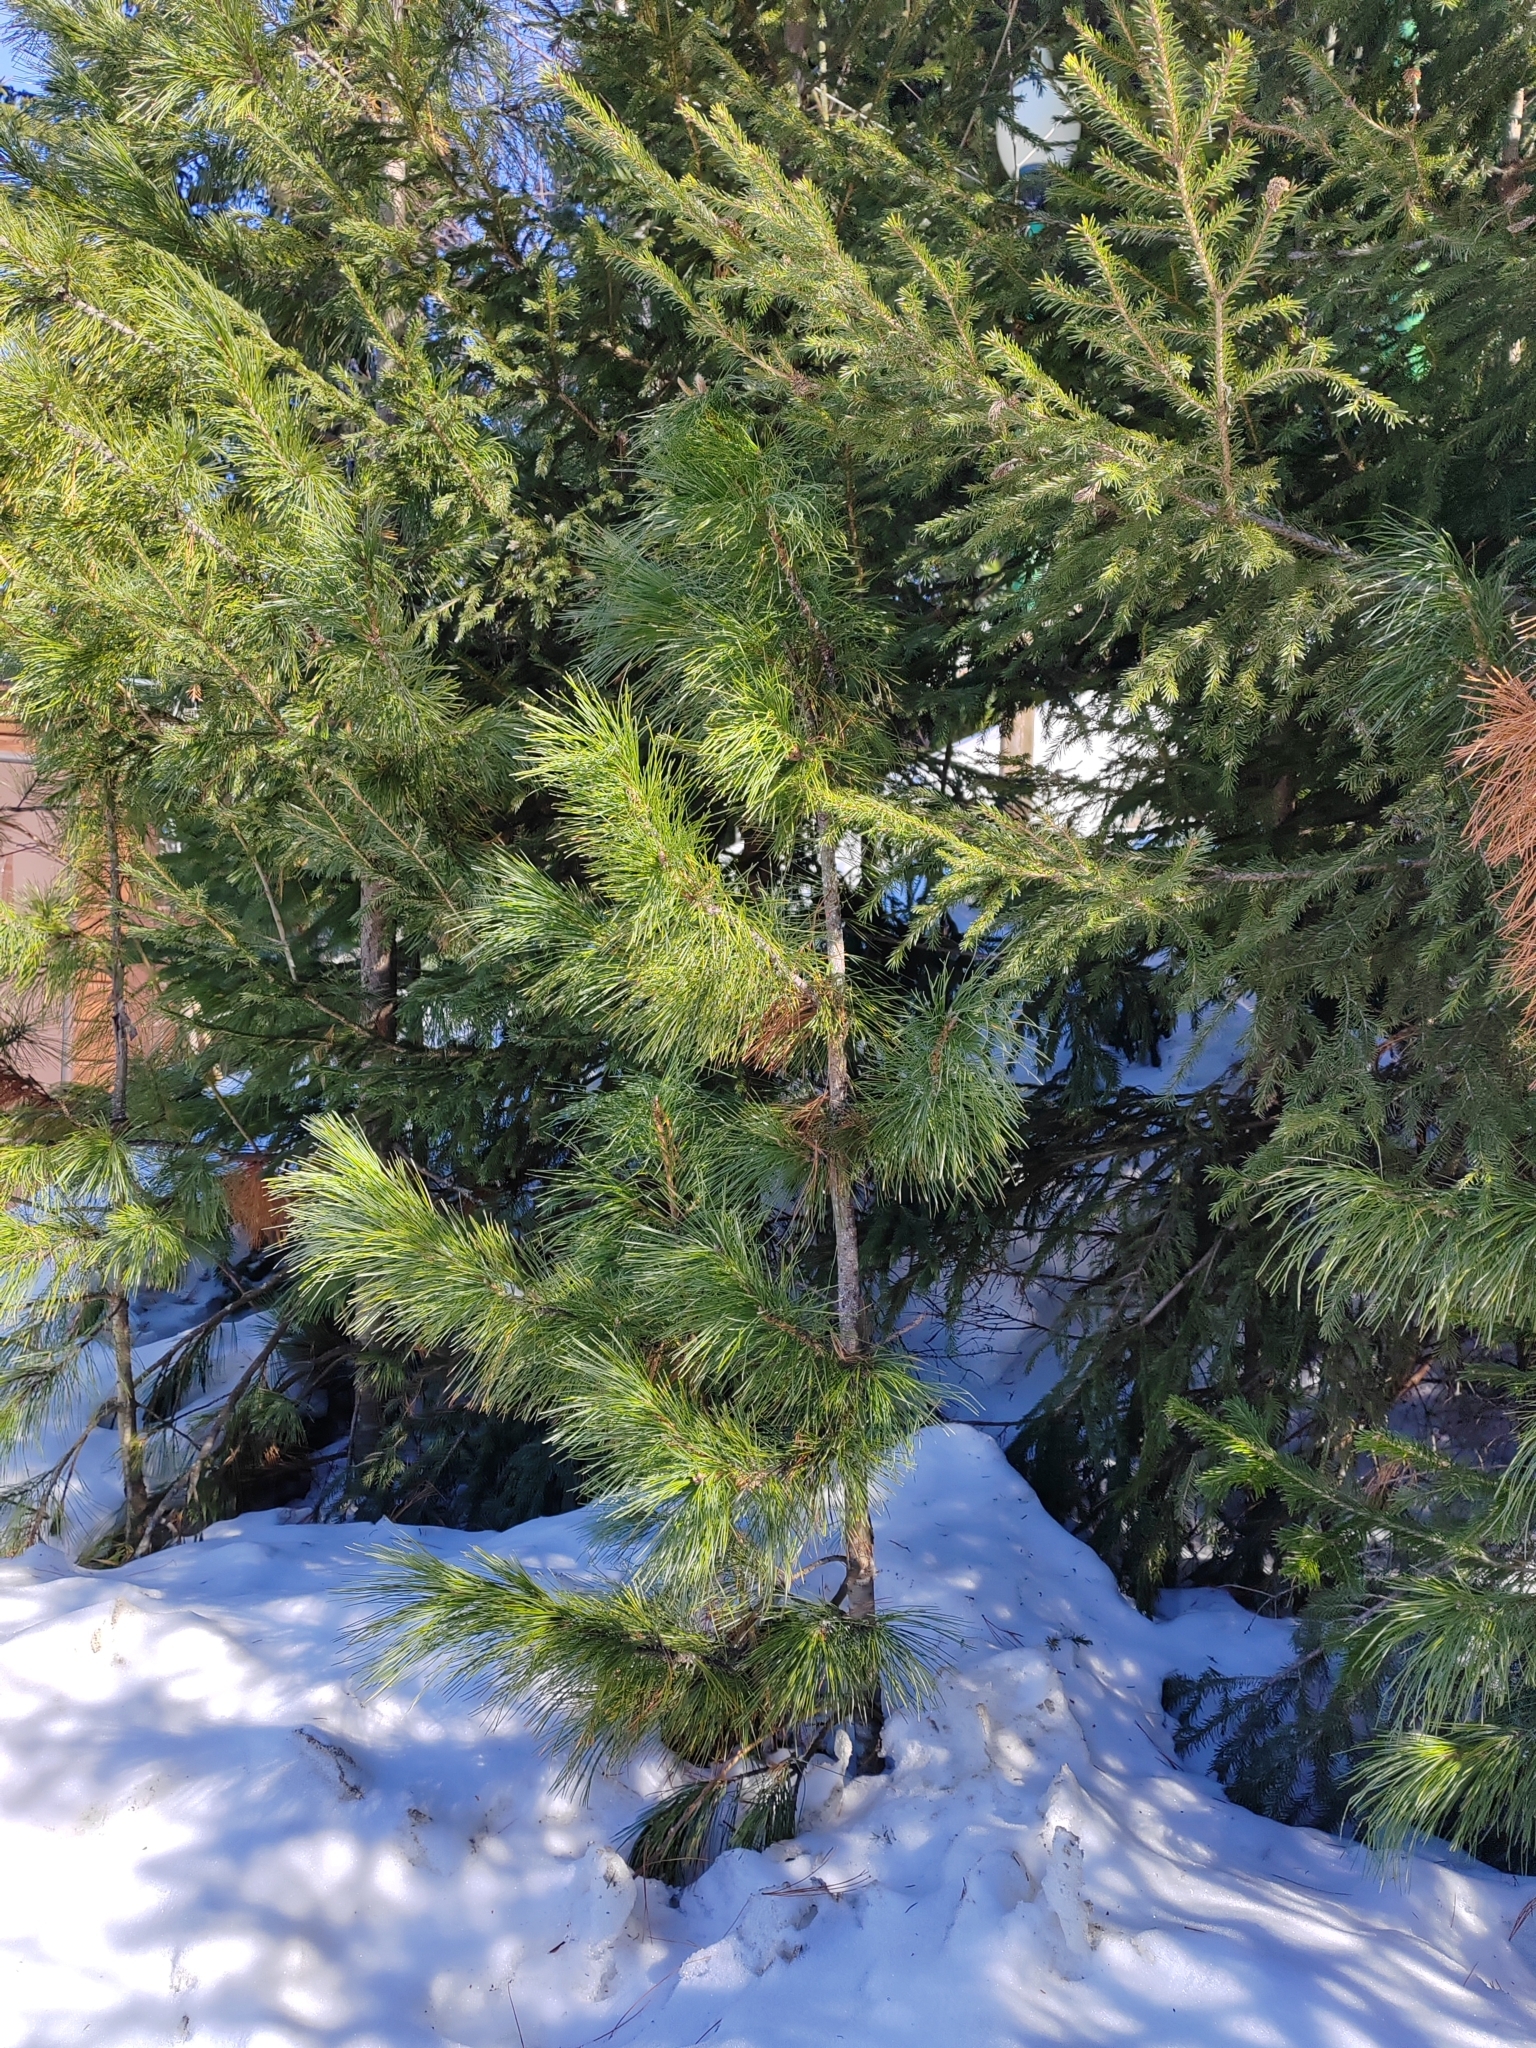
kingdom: Plantae
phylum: Tracheophyta
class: Pinopsida
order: Pinales
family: Pinaceae
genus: Pinus
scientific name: Pinus sibirica
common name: Siberian pine
